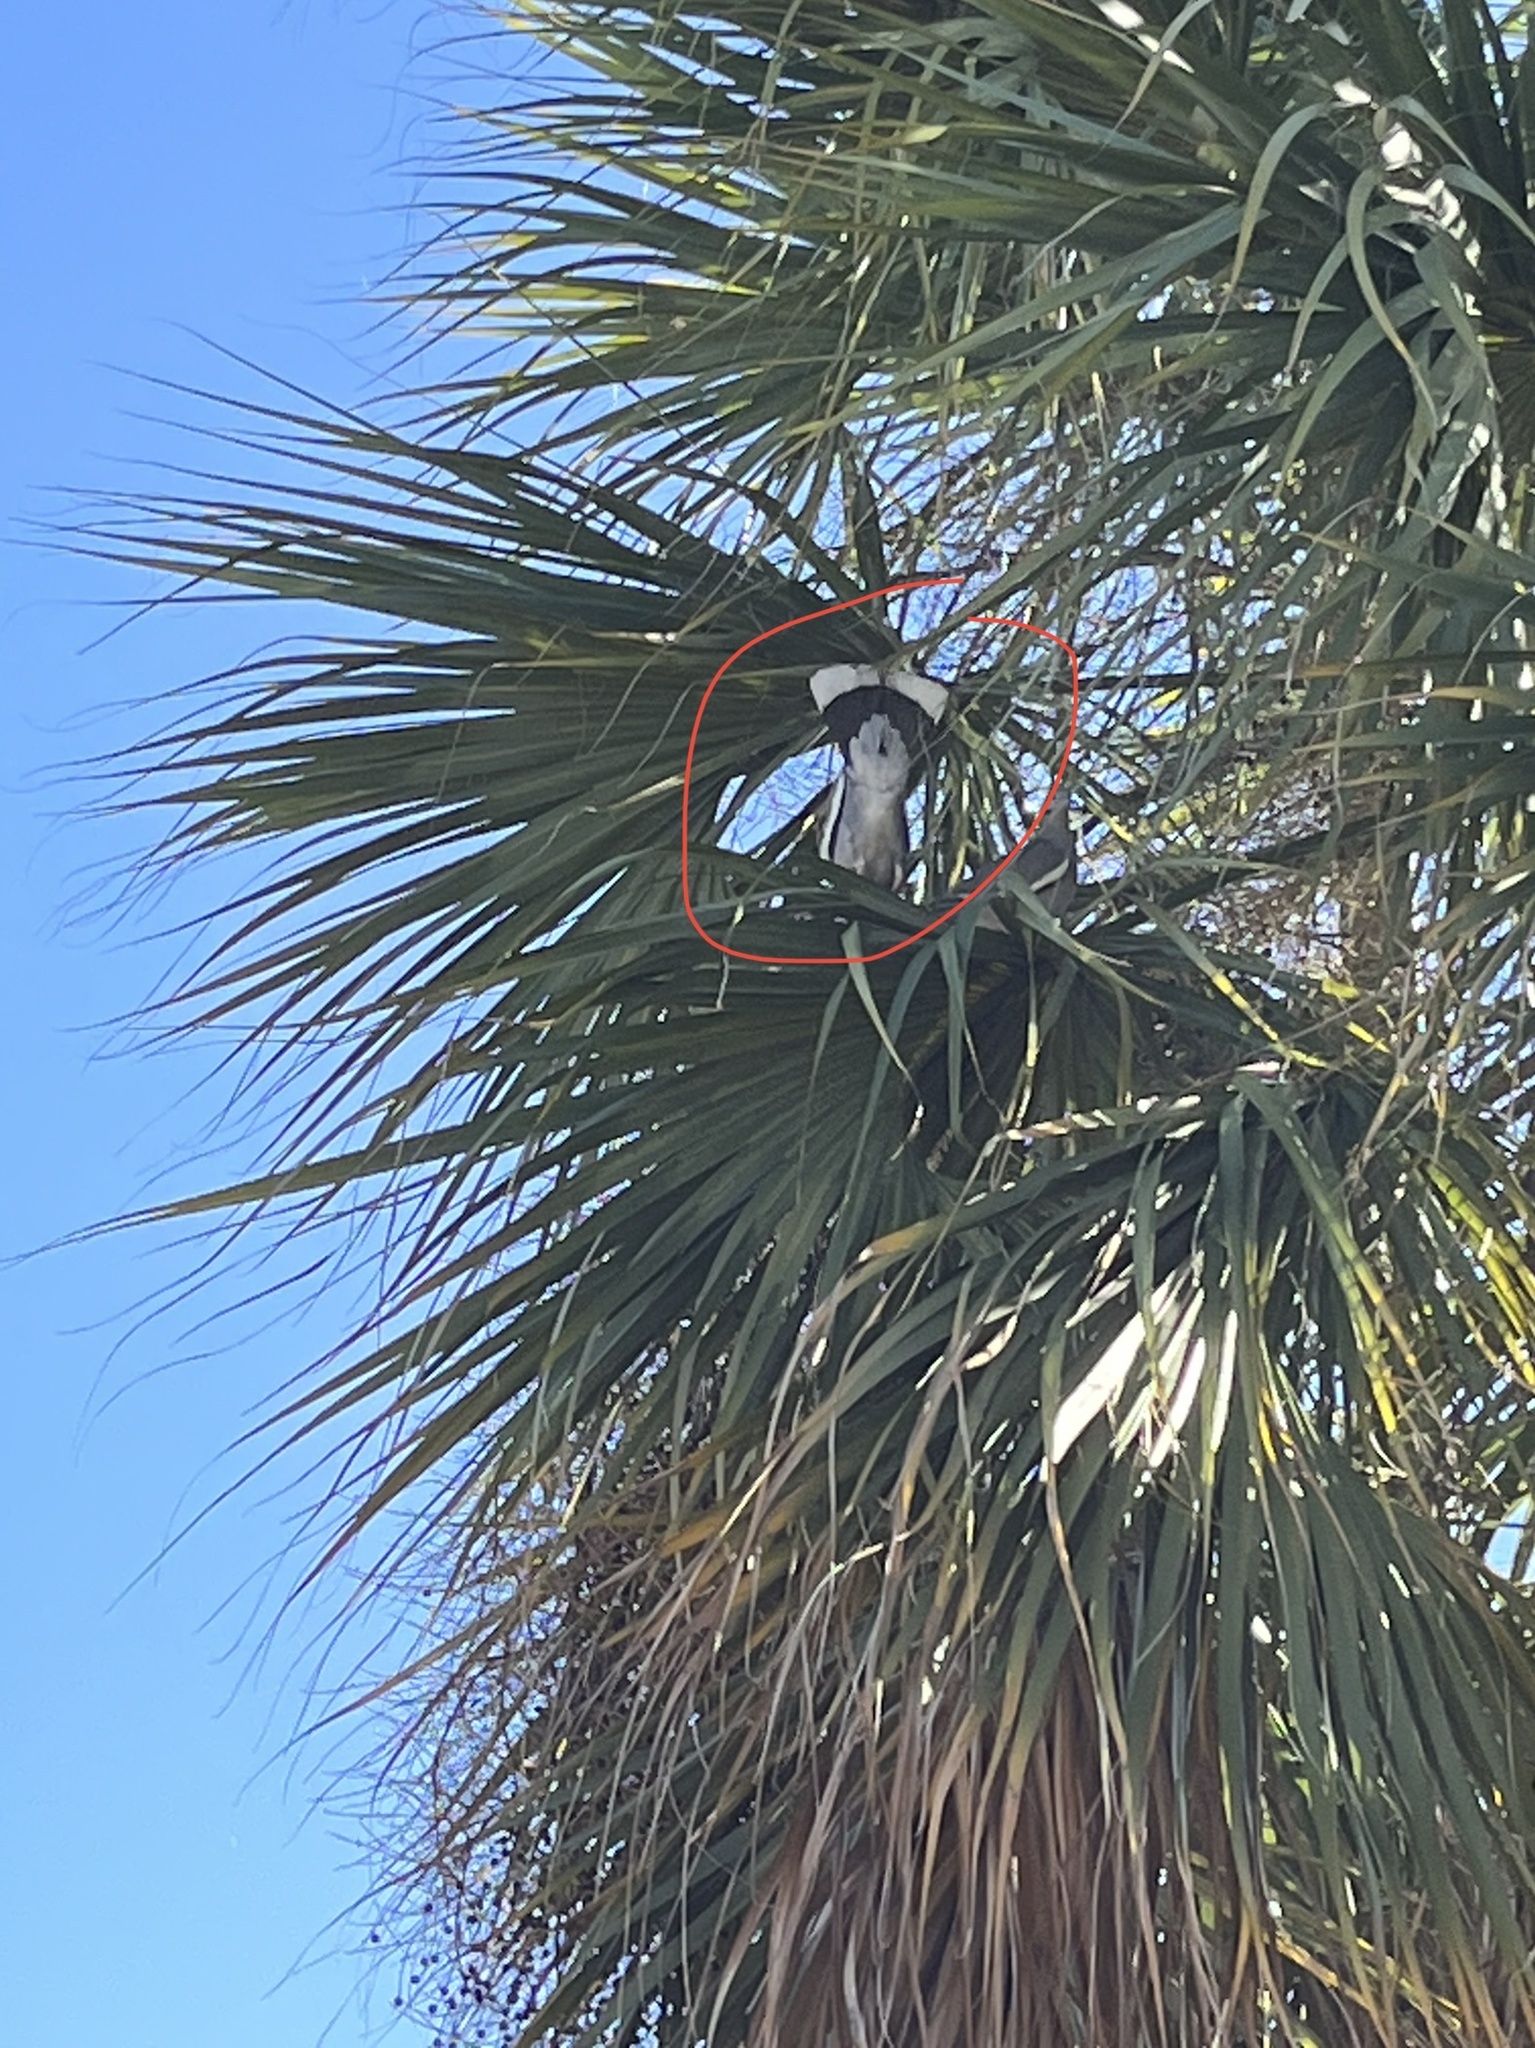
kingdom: Animalia
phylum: Chordata
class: Aves
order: Columbiformes
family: Columbidae
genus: Zenaida
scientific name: Zenaida asiatica
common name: White-winged dove
